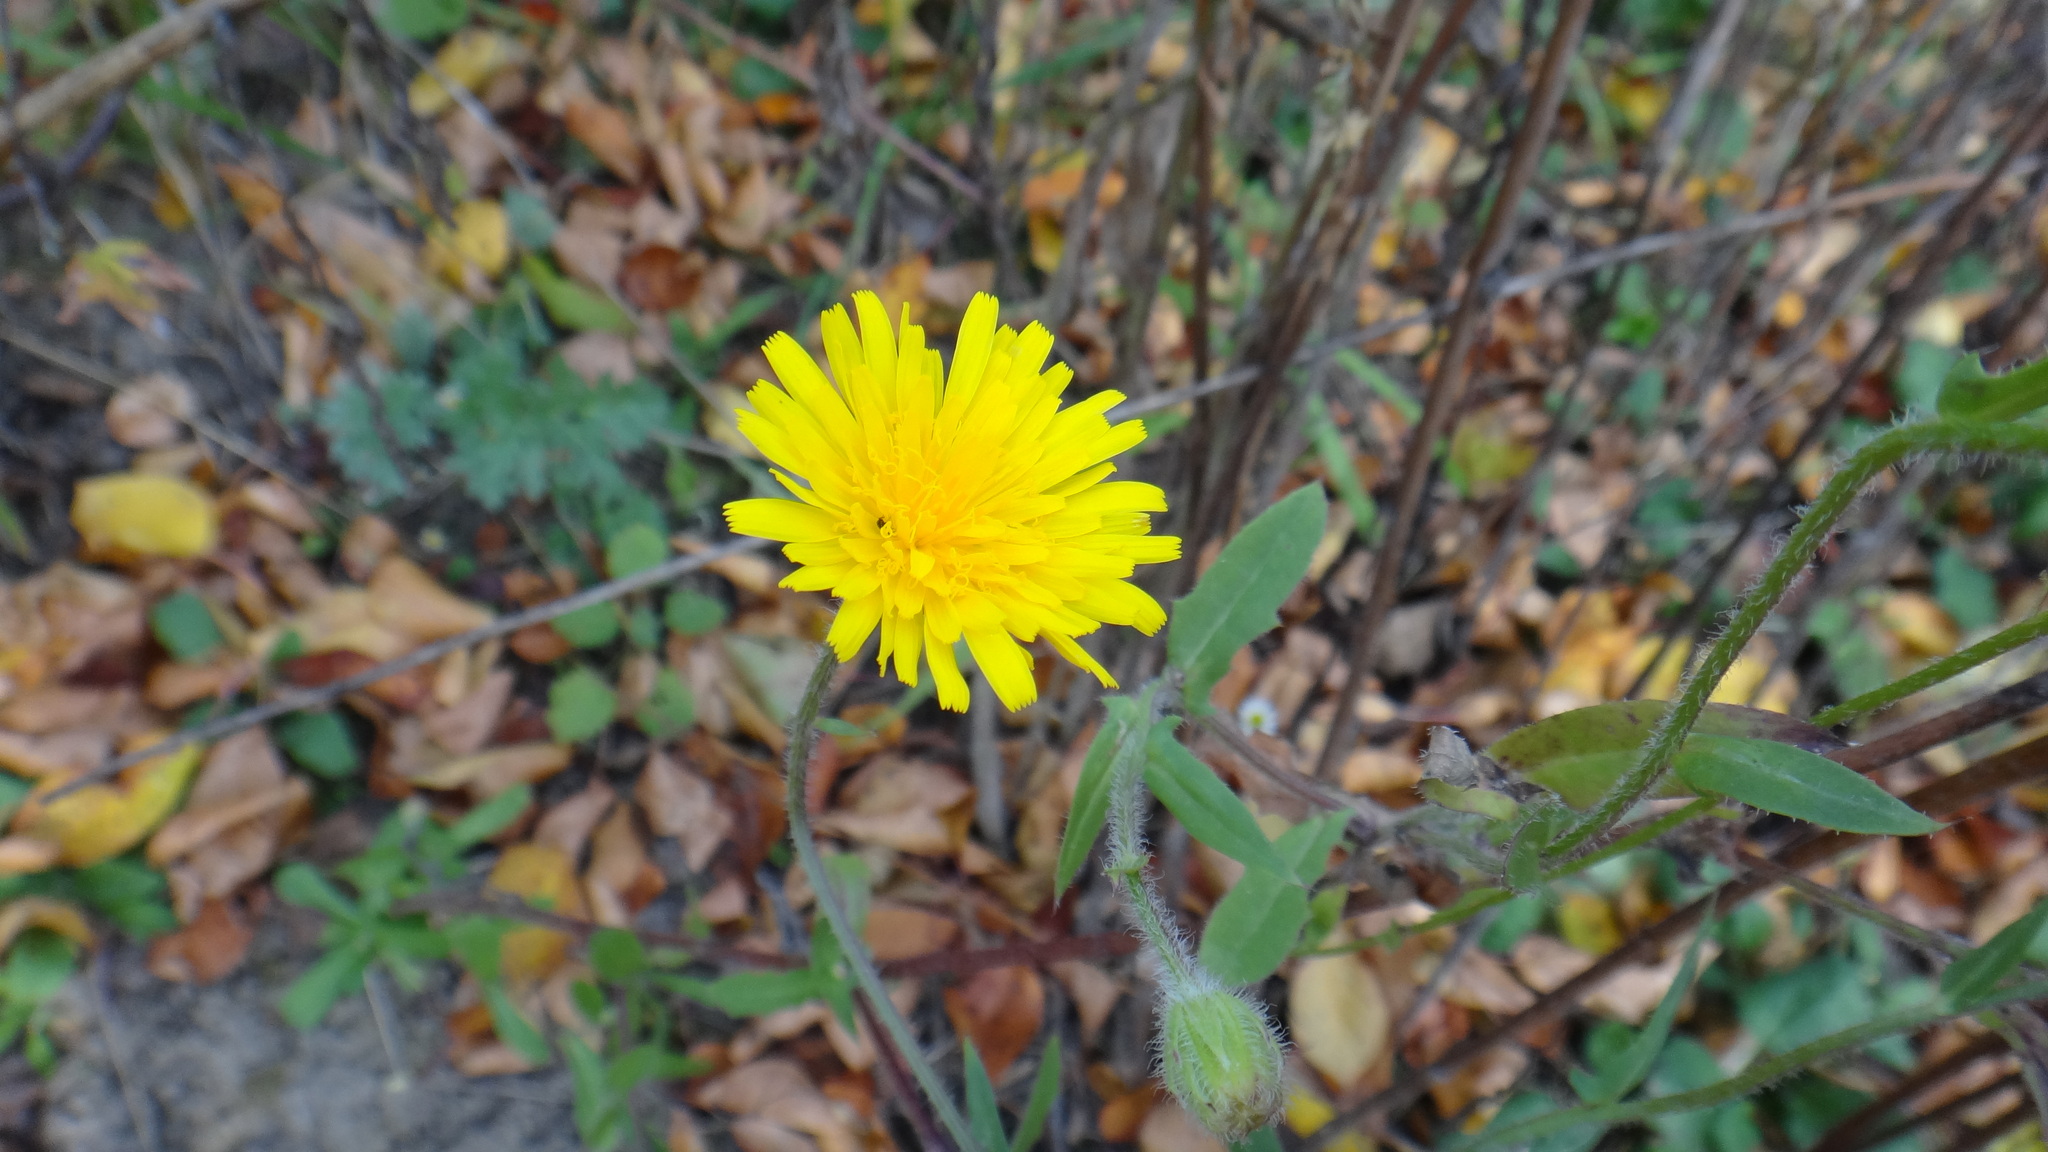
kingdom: Plantae
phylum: Tracheophyta
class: Magnoliopsida
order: Asterales
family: Asteraceae
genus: Crepis
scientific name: Crepis foetida
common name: Stinking hawk's-beard
